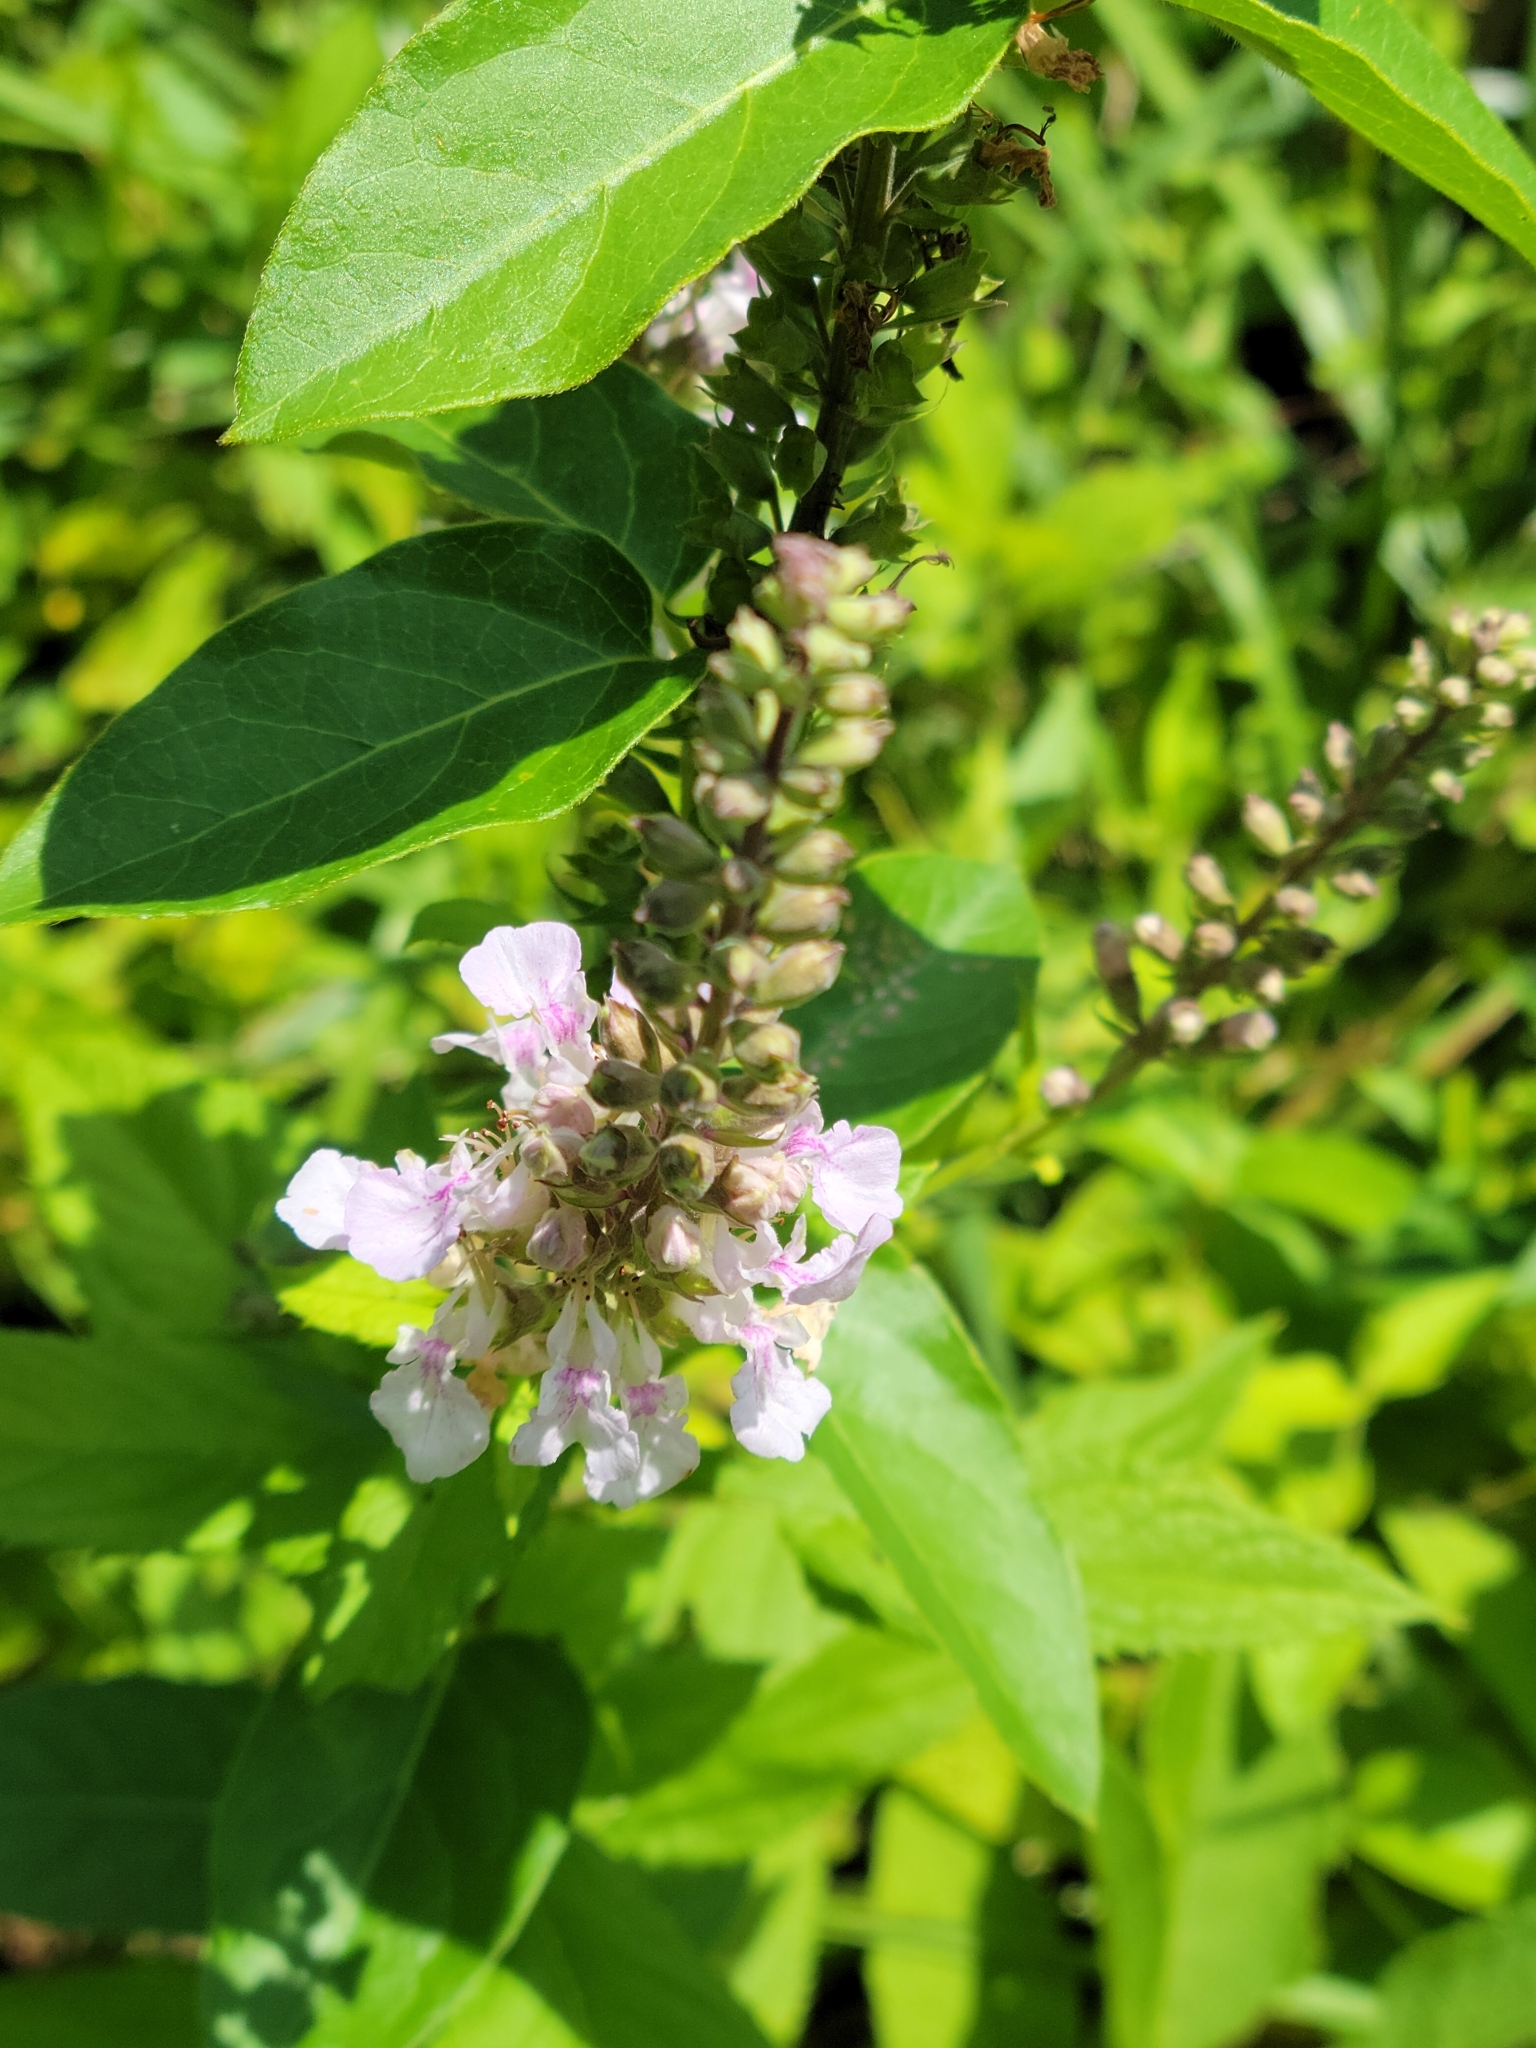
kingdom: Plantae
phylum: Tracheophyta
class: Magnoliopsida
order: Lamiales
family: Lamiaceae
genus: Teucrium
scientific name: Teucrium canadense
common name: American germander
